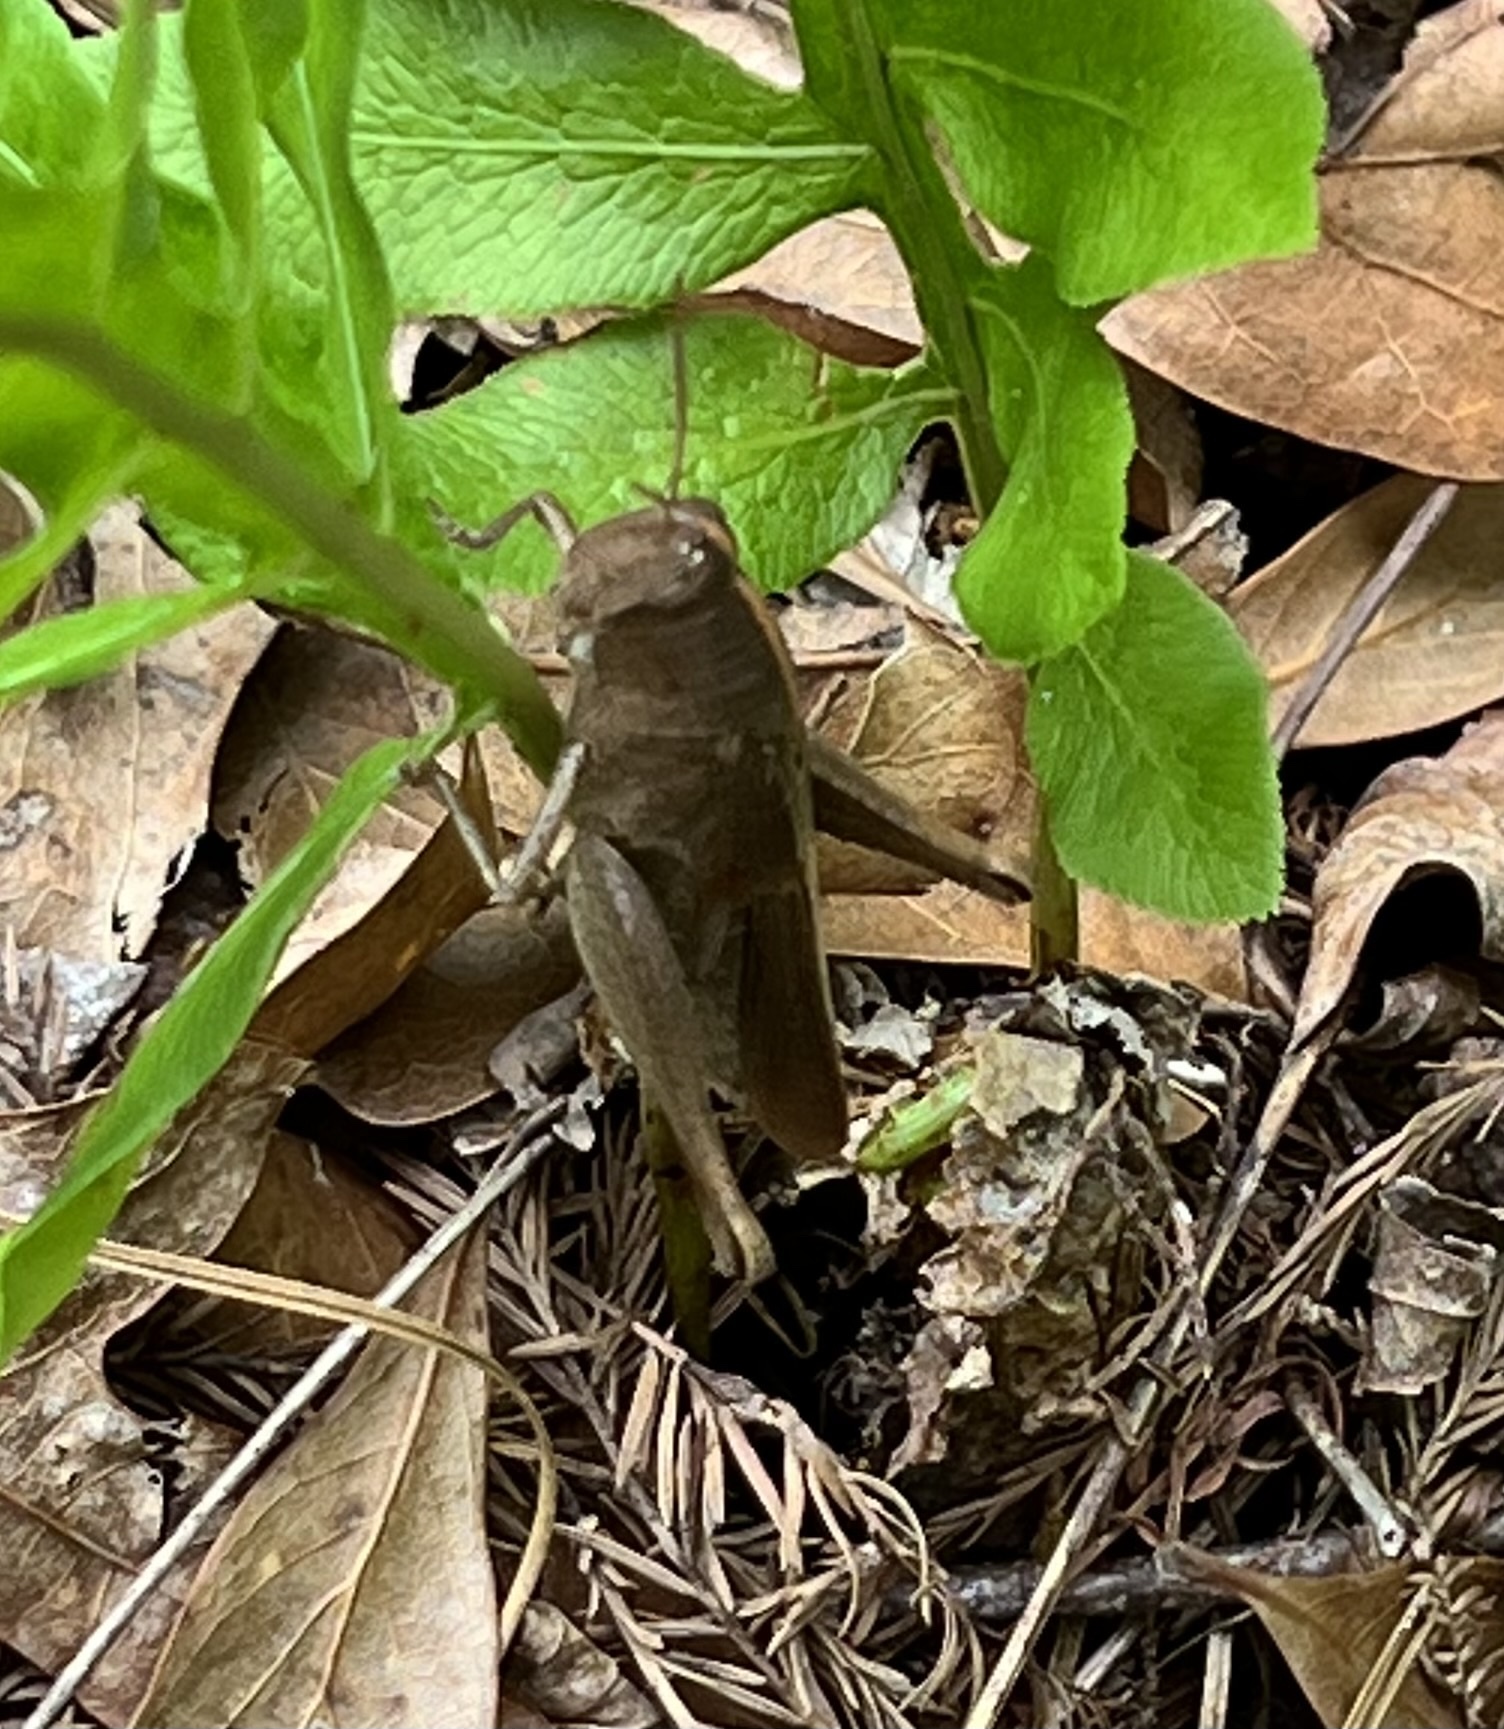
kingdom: Animalia
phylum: Arthropoda
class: Insecta
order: Orthoptera
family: Acrididae
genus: Schistocerca
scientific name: Schistocerca damnifica
